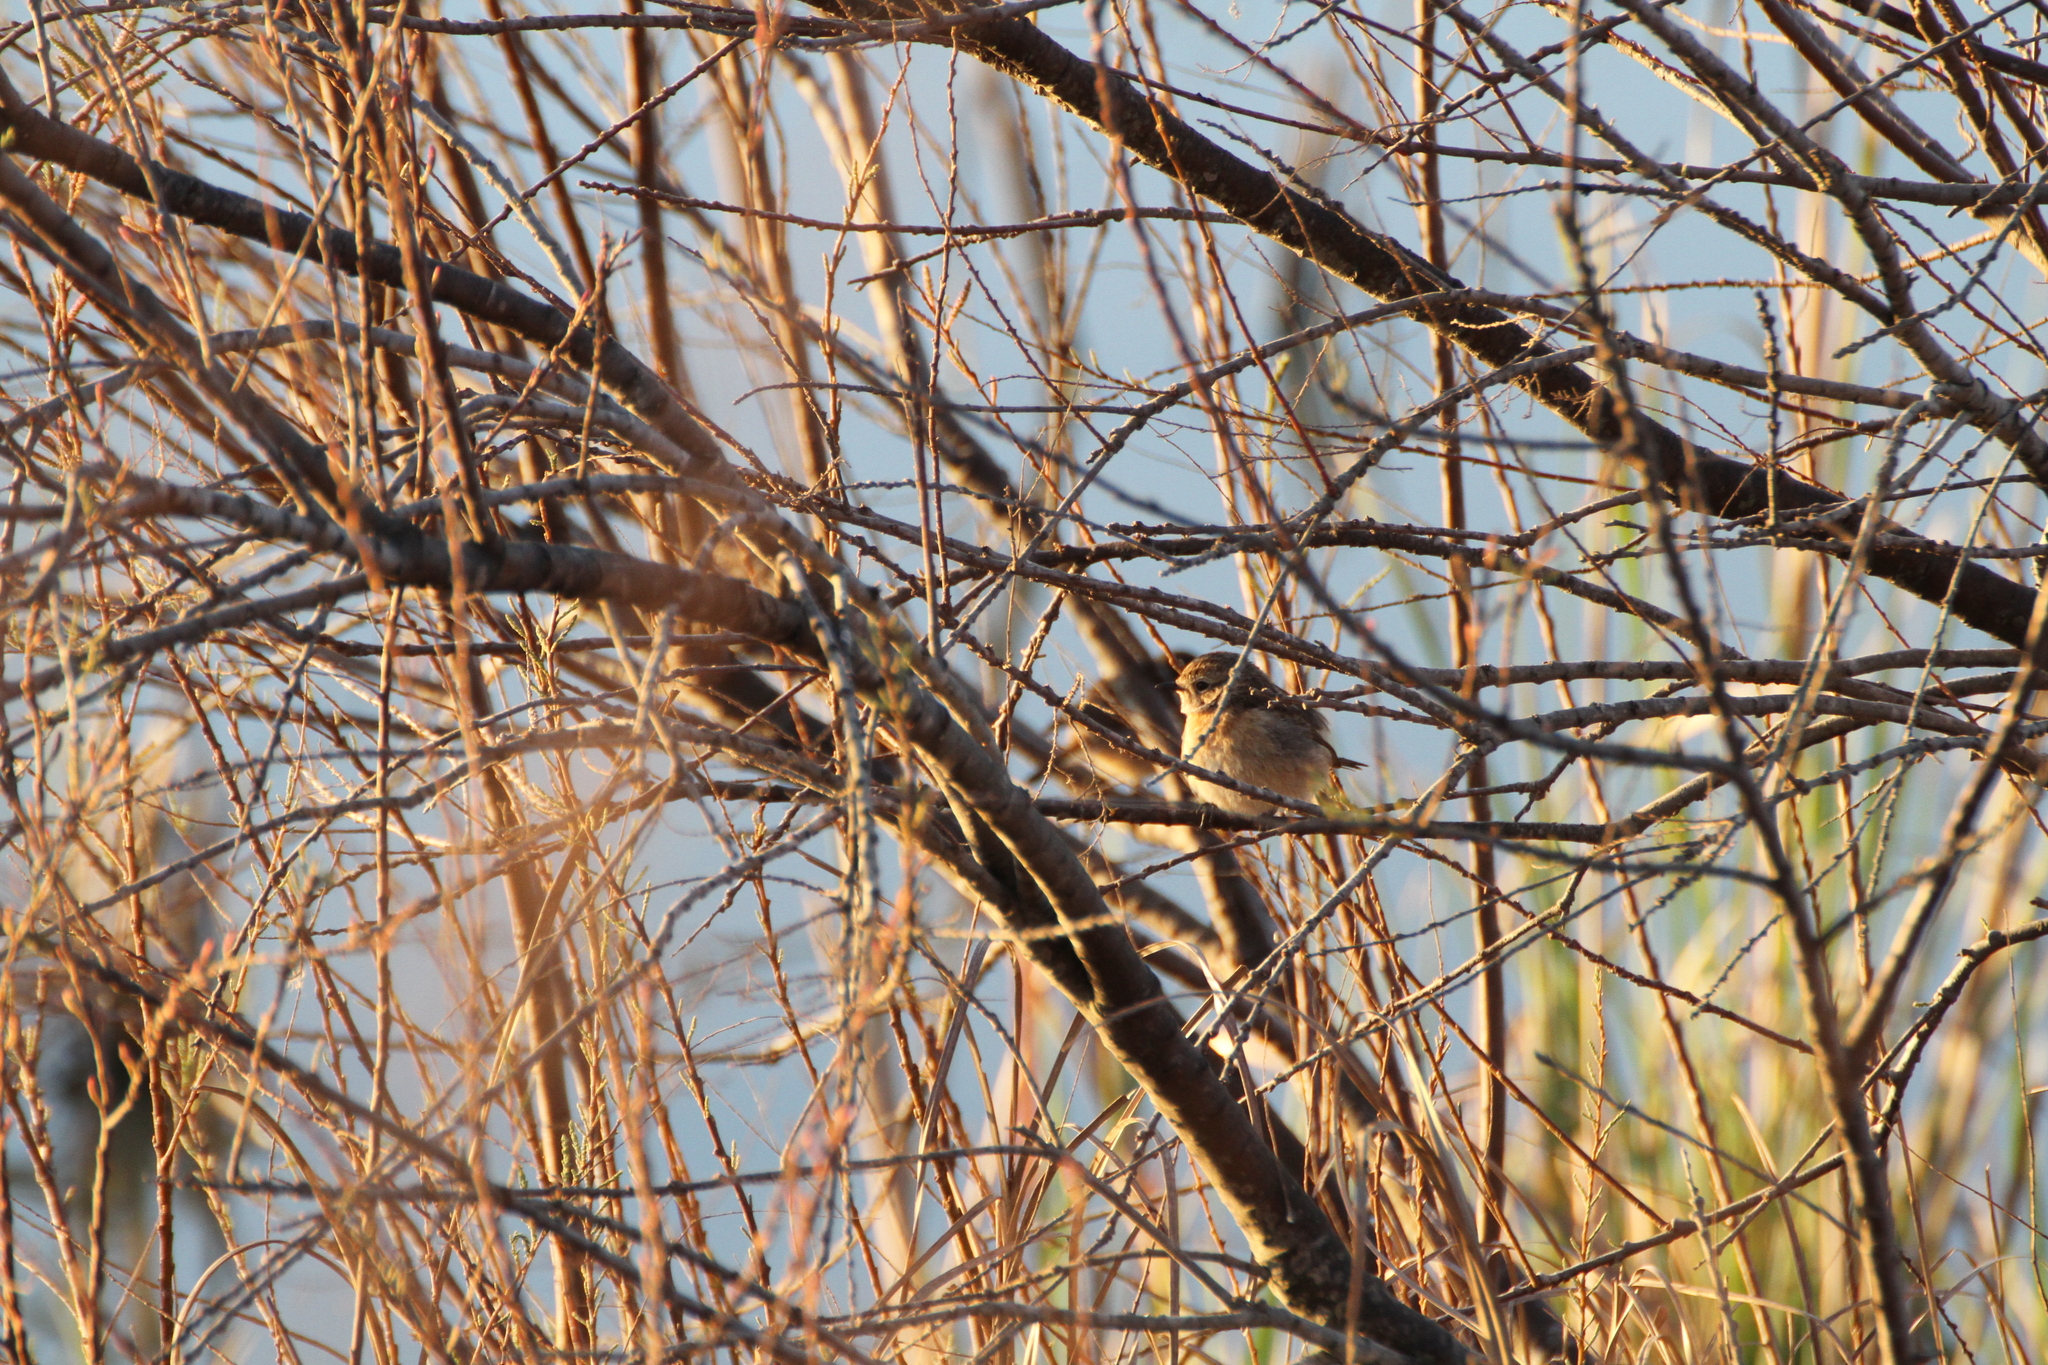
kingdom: Animalia
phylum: Chordata
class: Aves
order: Passeriformes
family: Muscicapidae
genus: Saxicola
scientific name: Saxicola rubicola
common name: European stonechat
